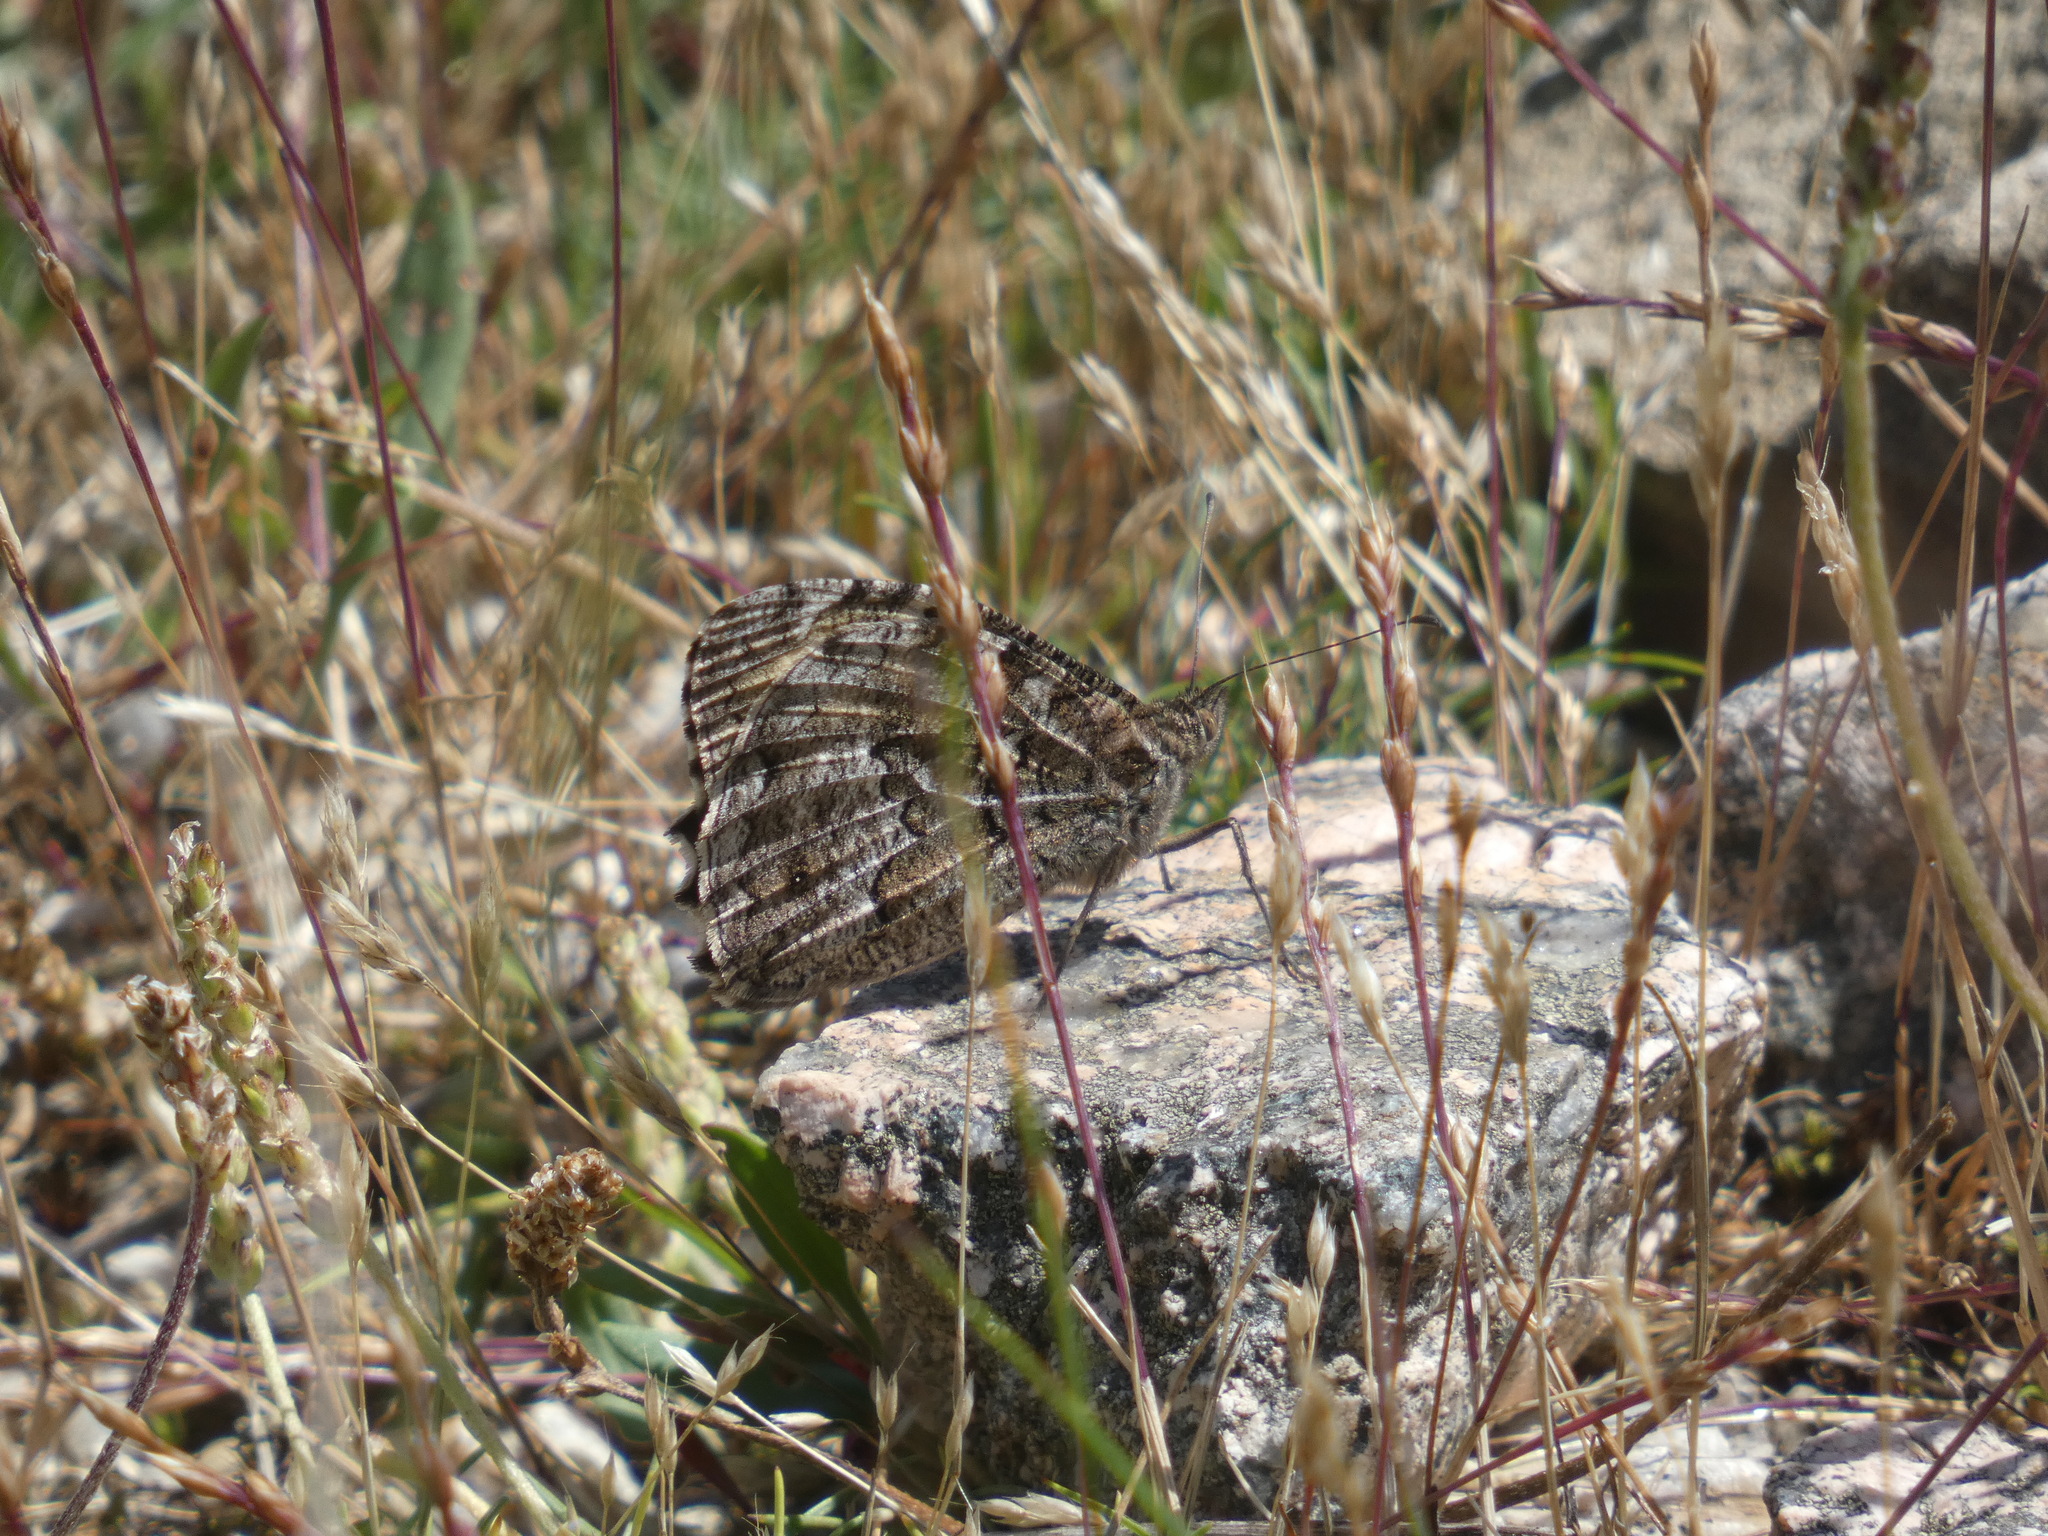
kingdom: Animalia
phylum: Arthropoda
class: Insecta
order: Lepidoptera
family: Nymphalidae
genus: Hipparchia
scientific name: Hipparchia semele
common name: Grayling
